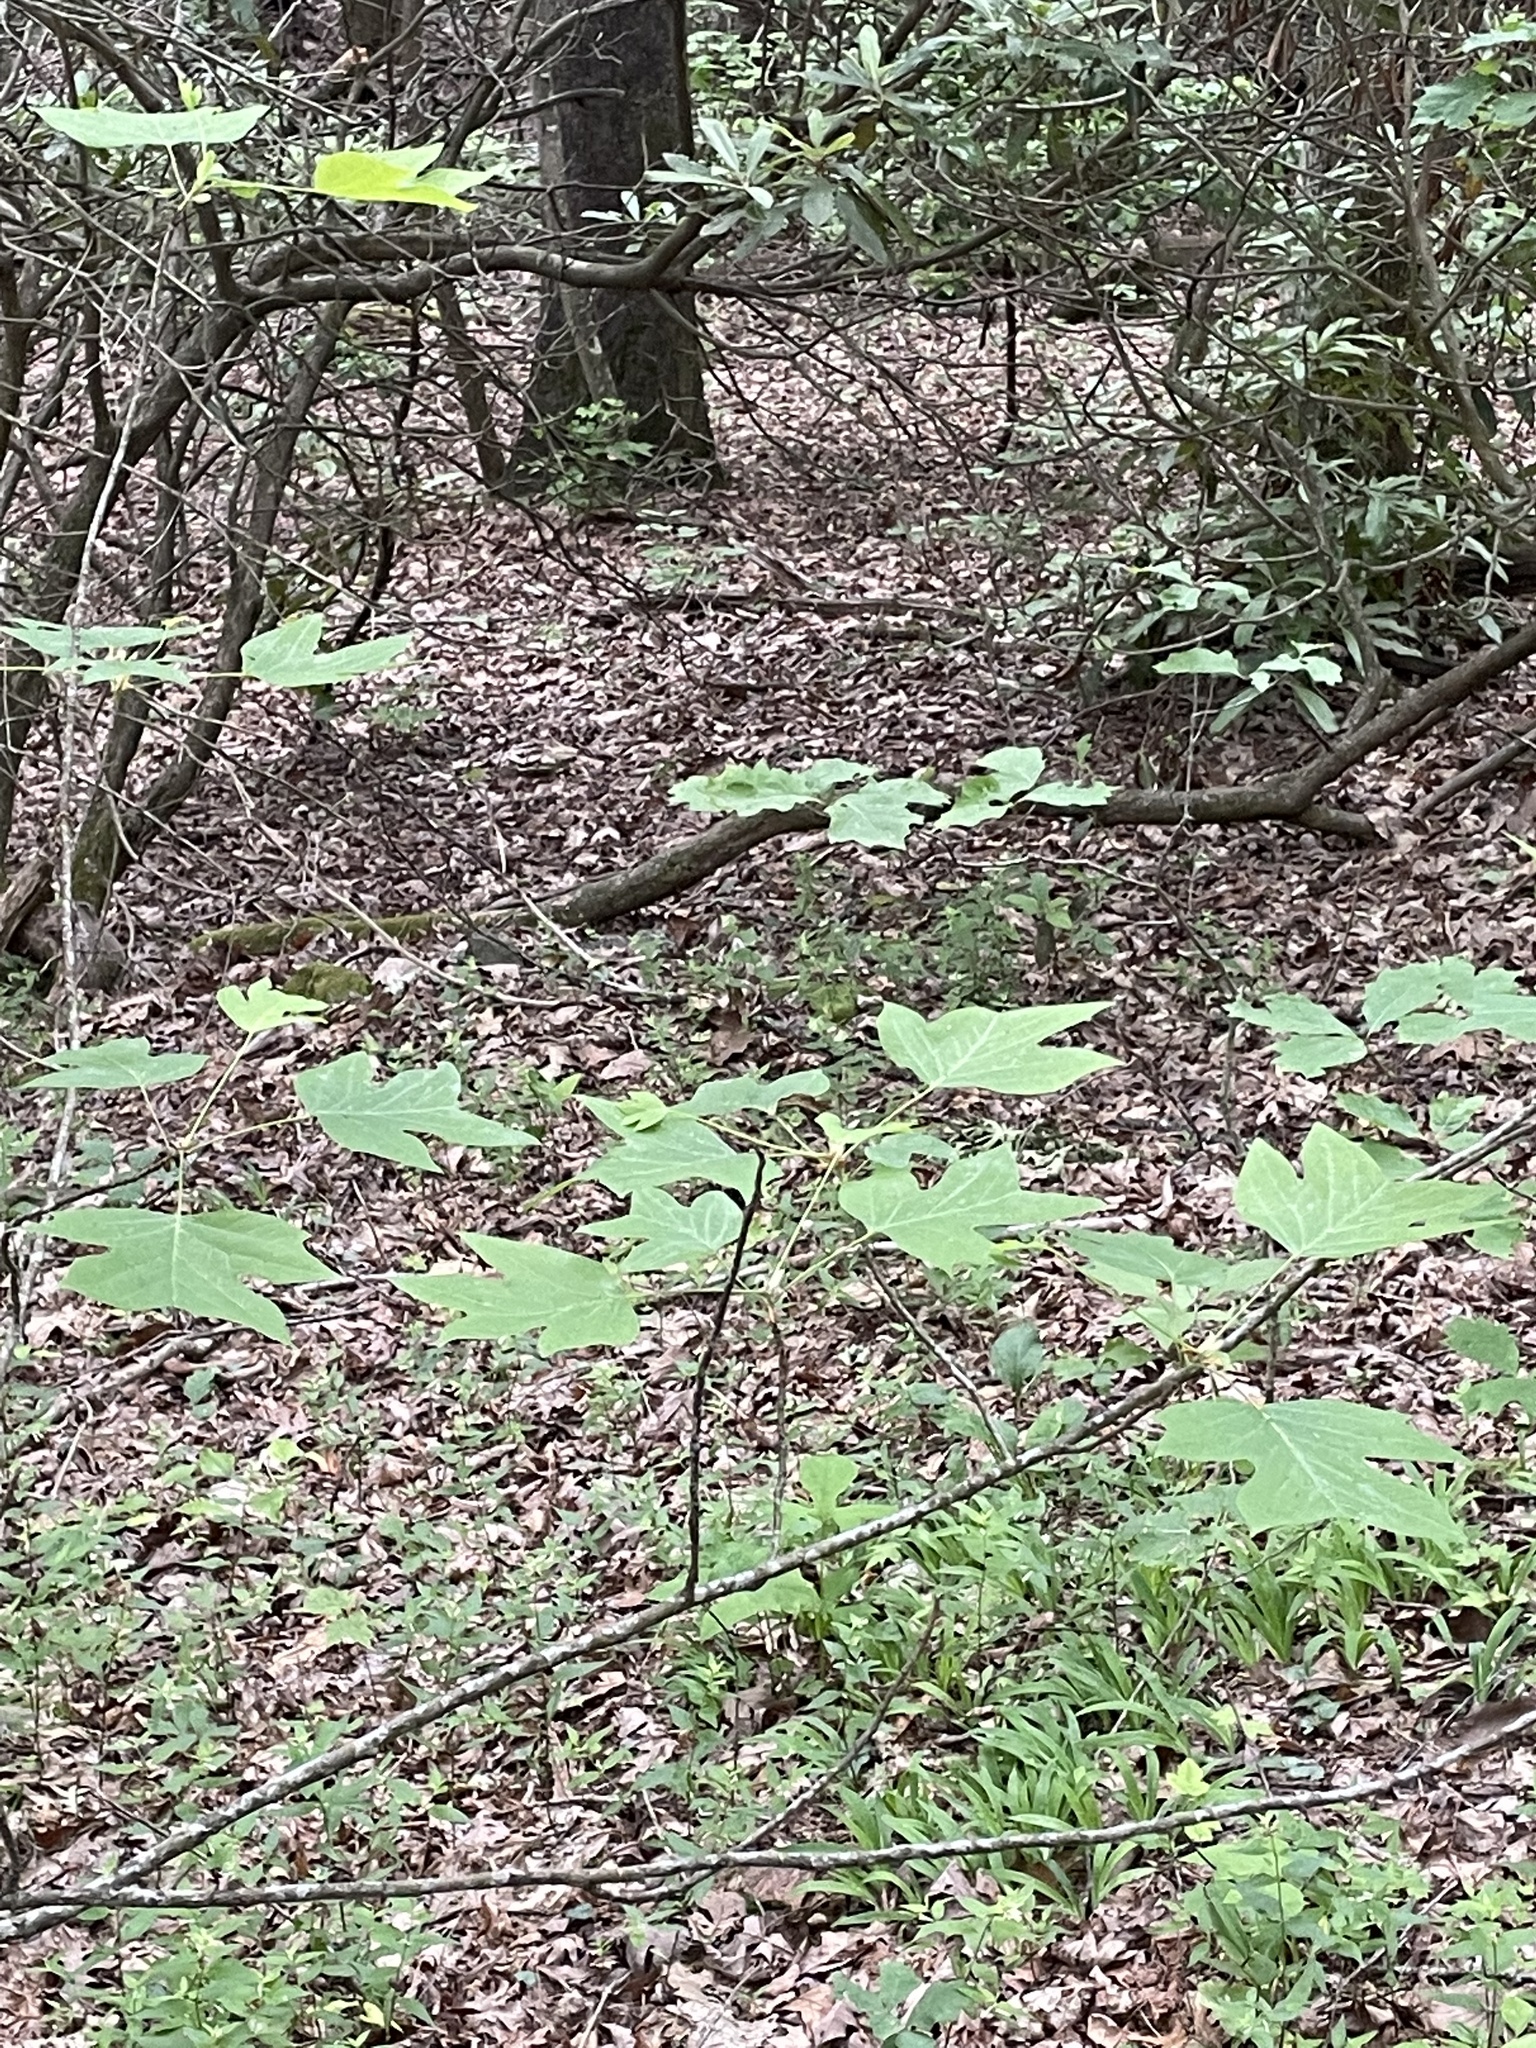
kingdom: Plantae
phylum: Tracheophyta
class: Magnoliopsida
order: Magnoliales
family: Magnoliaceae
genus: Liriodendron
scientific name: Liriodendron tulipifera
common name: Tulip tree
